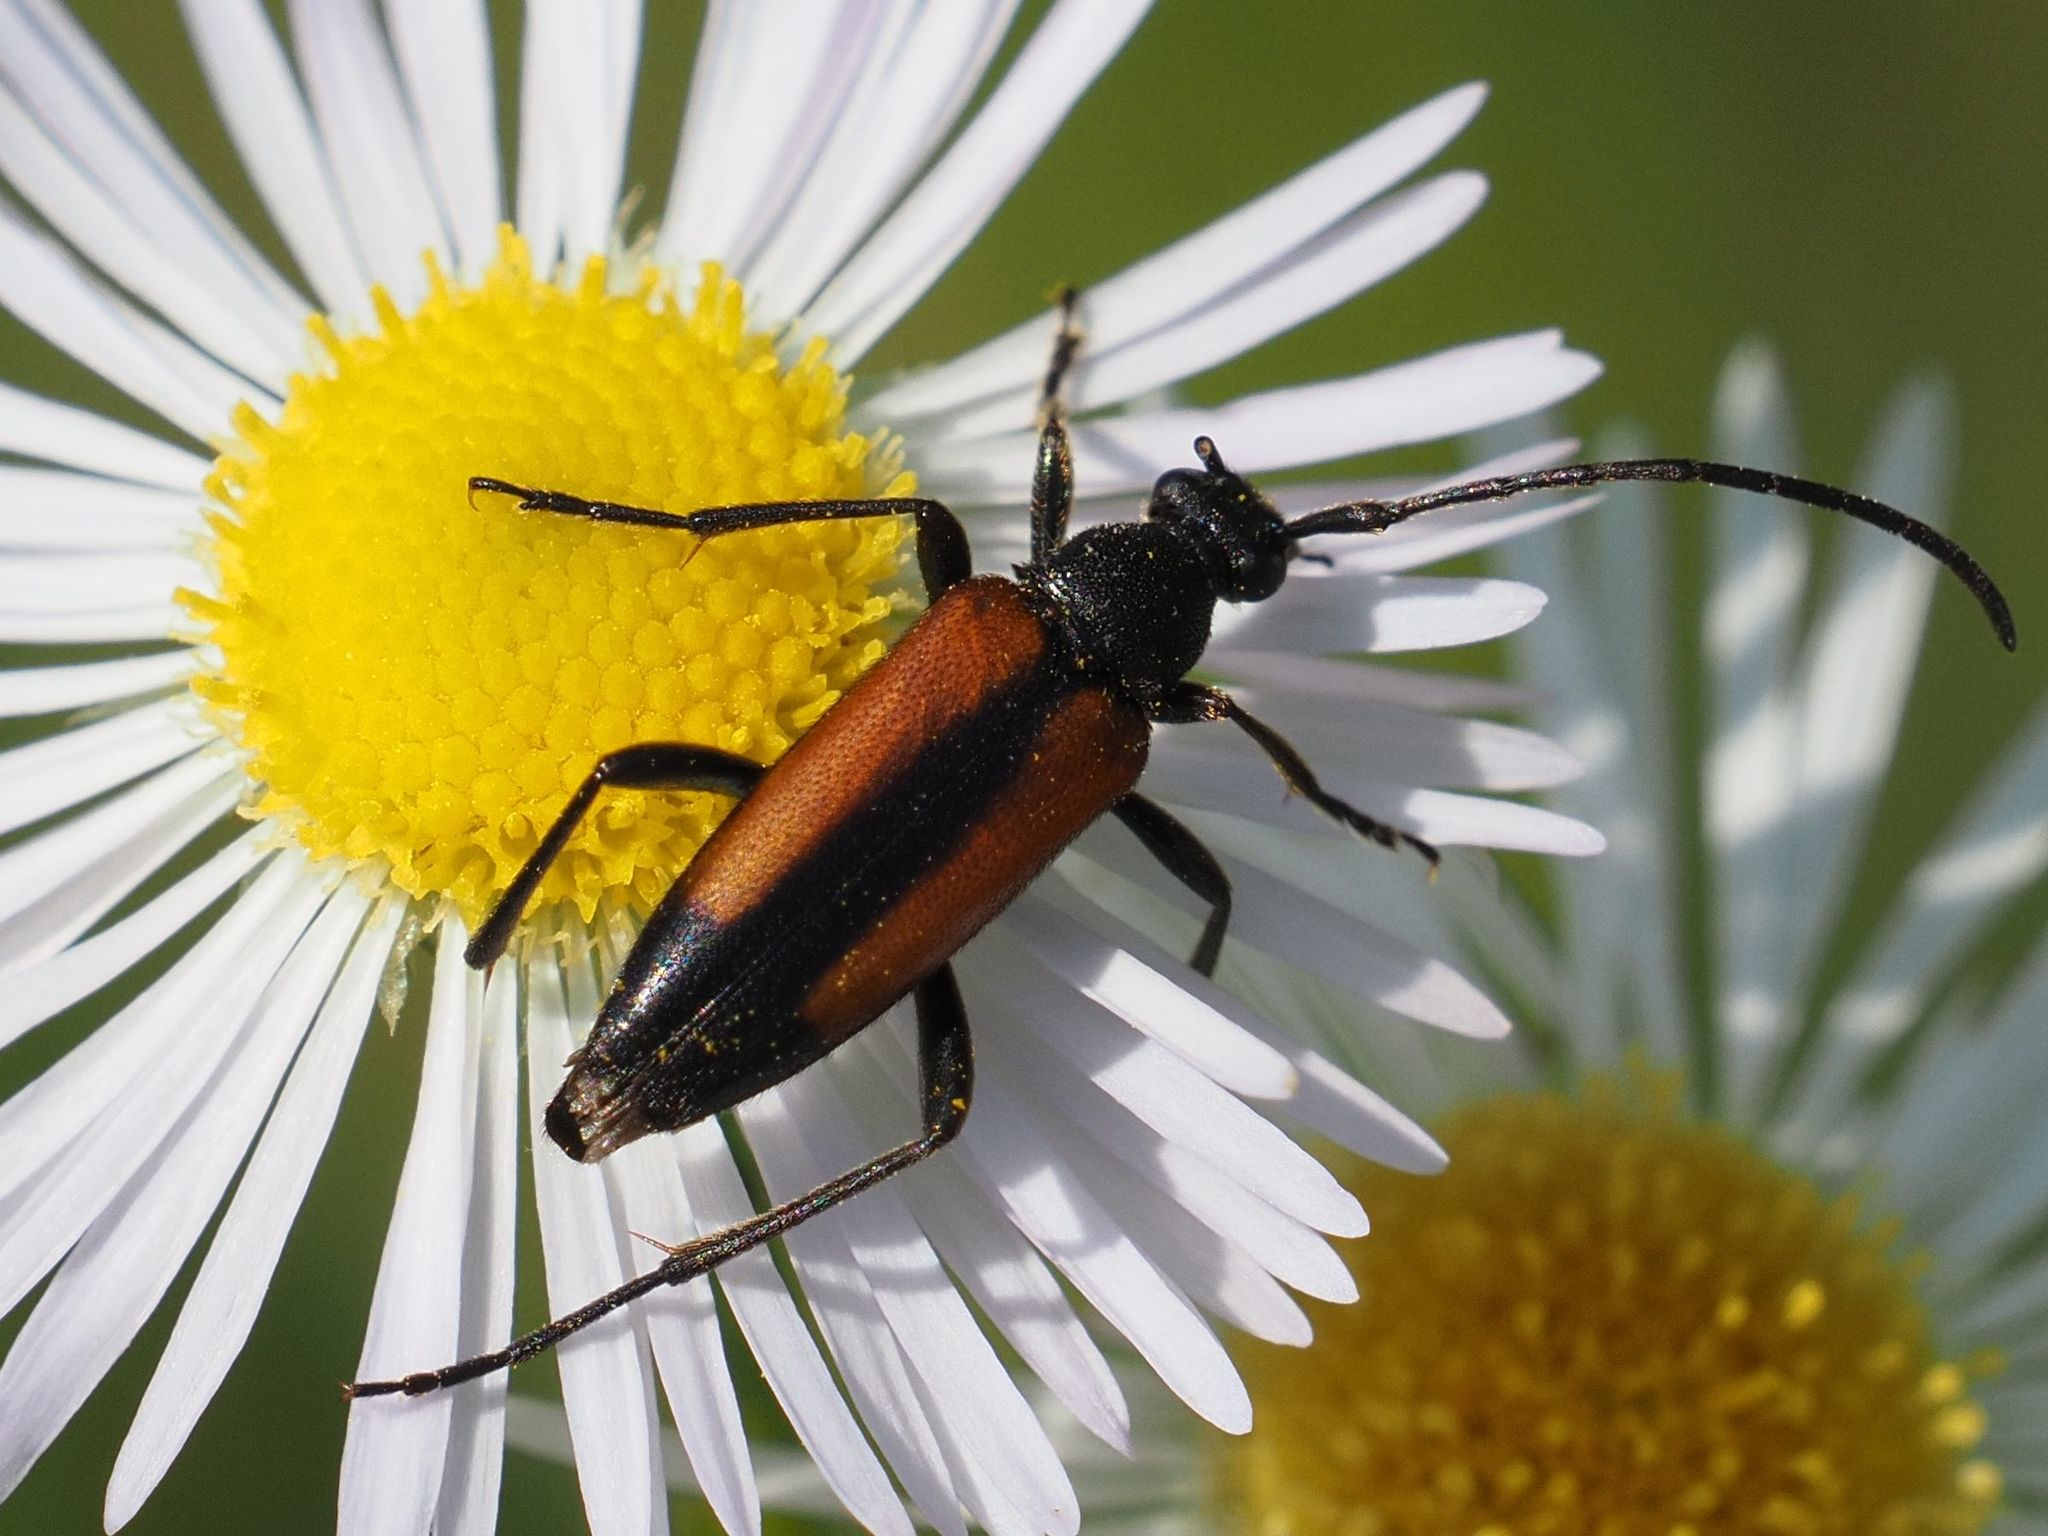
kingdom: Animalia
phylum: Arthropoda
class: Insecta
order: Coleoptera
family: Cerambycidae
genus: Stenurella
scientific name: Stenurella melanura
